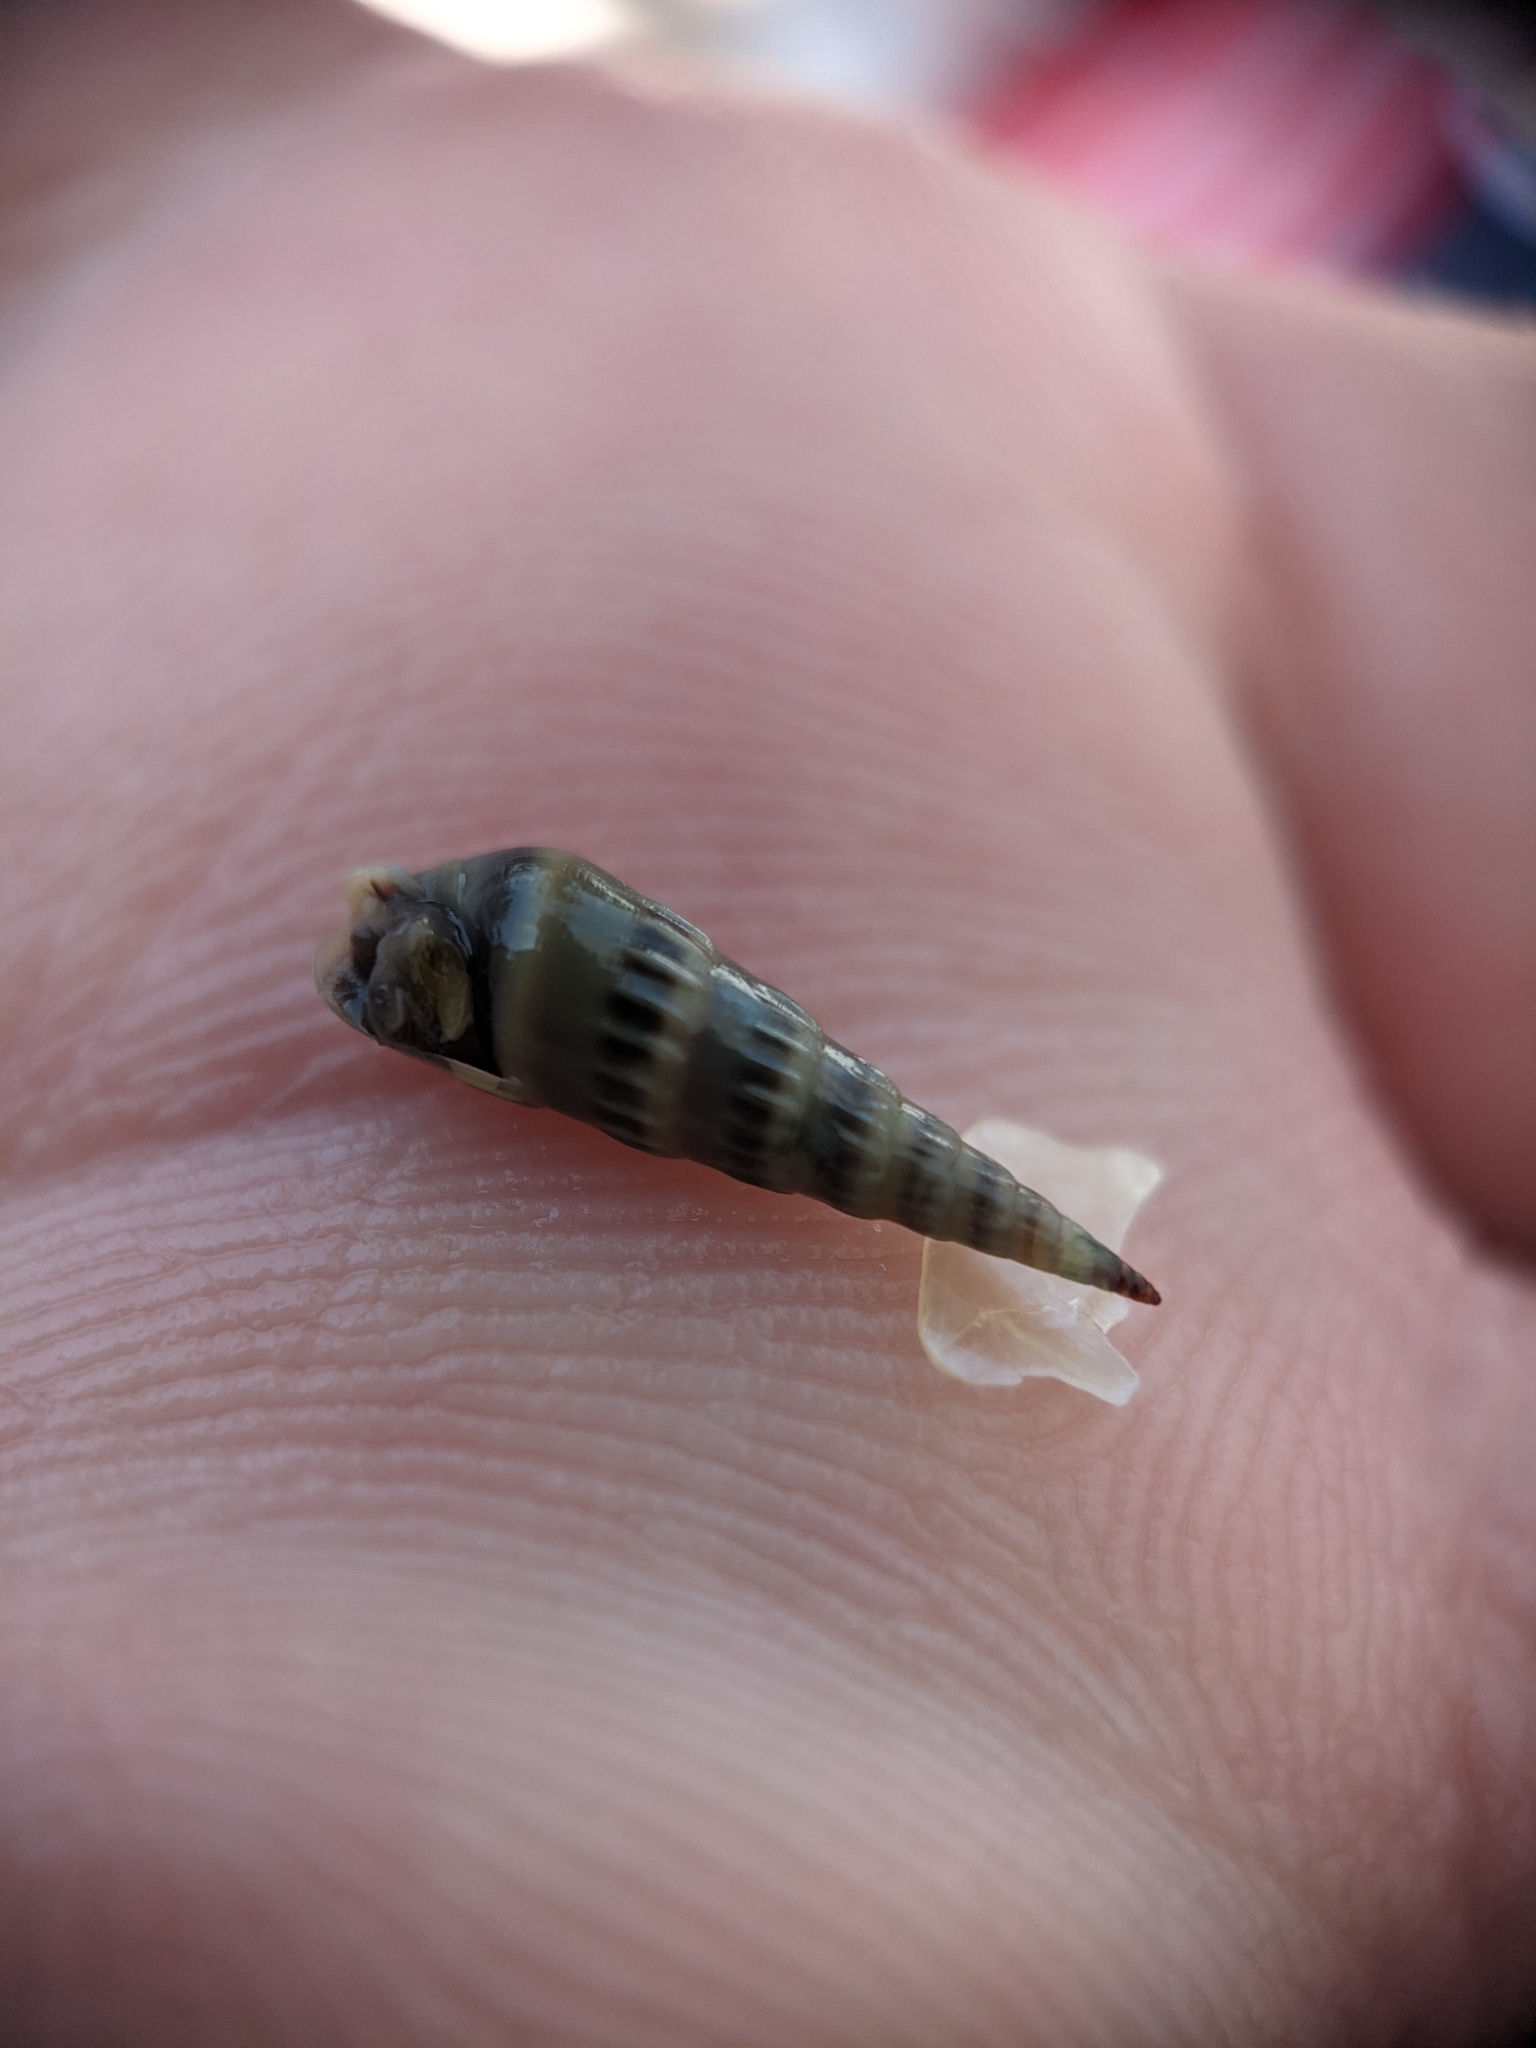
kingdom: Animalia
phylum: Mollusca
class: Gastropoda
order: Neogastropoda
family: Terebridae
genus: Hastula
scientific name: Hastula cinerea
